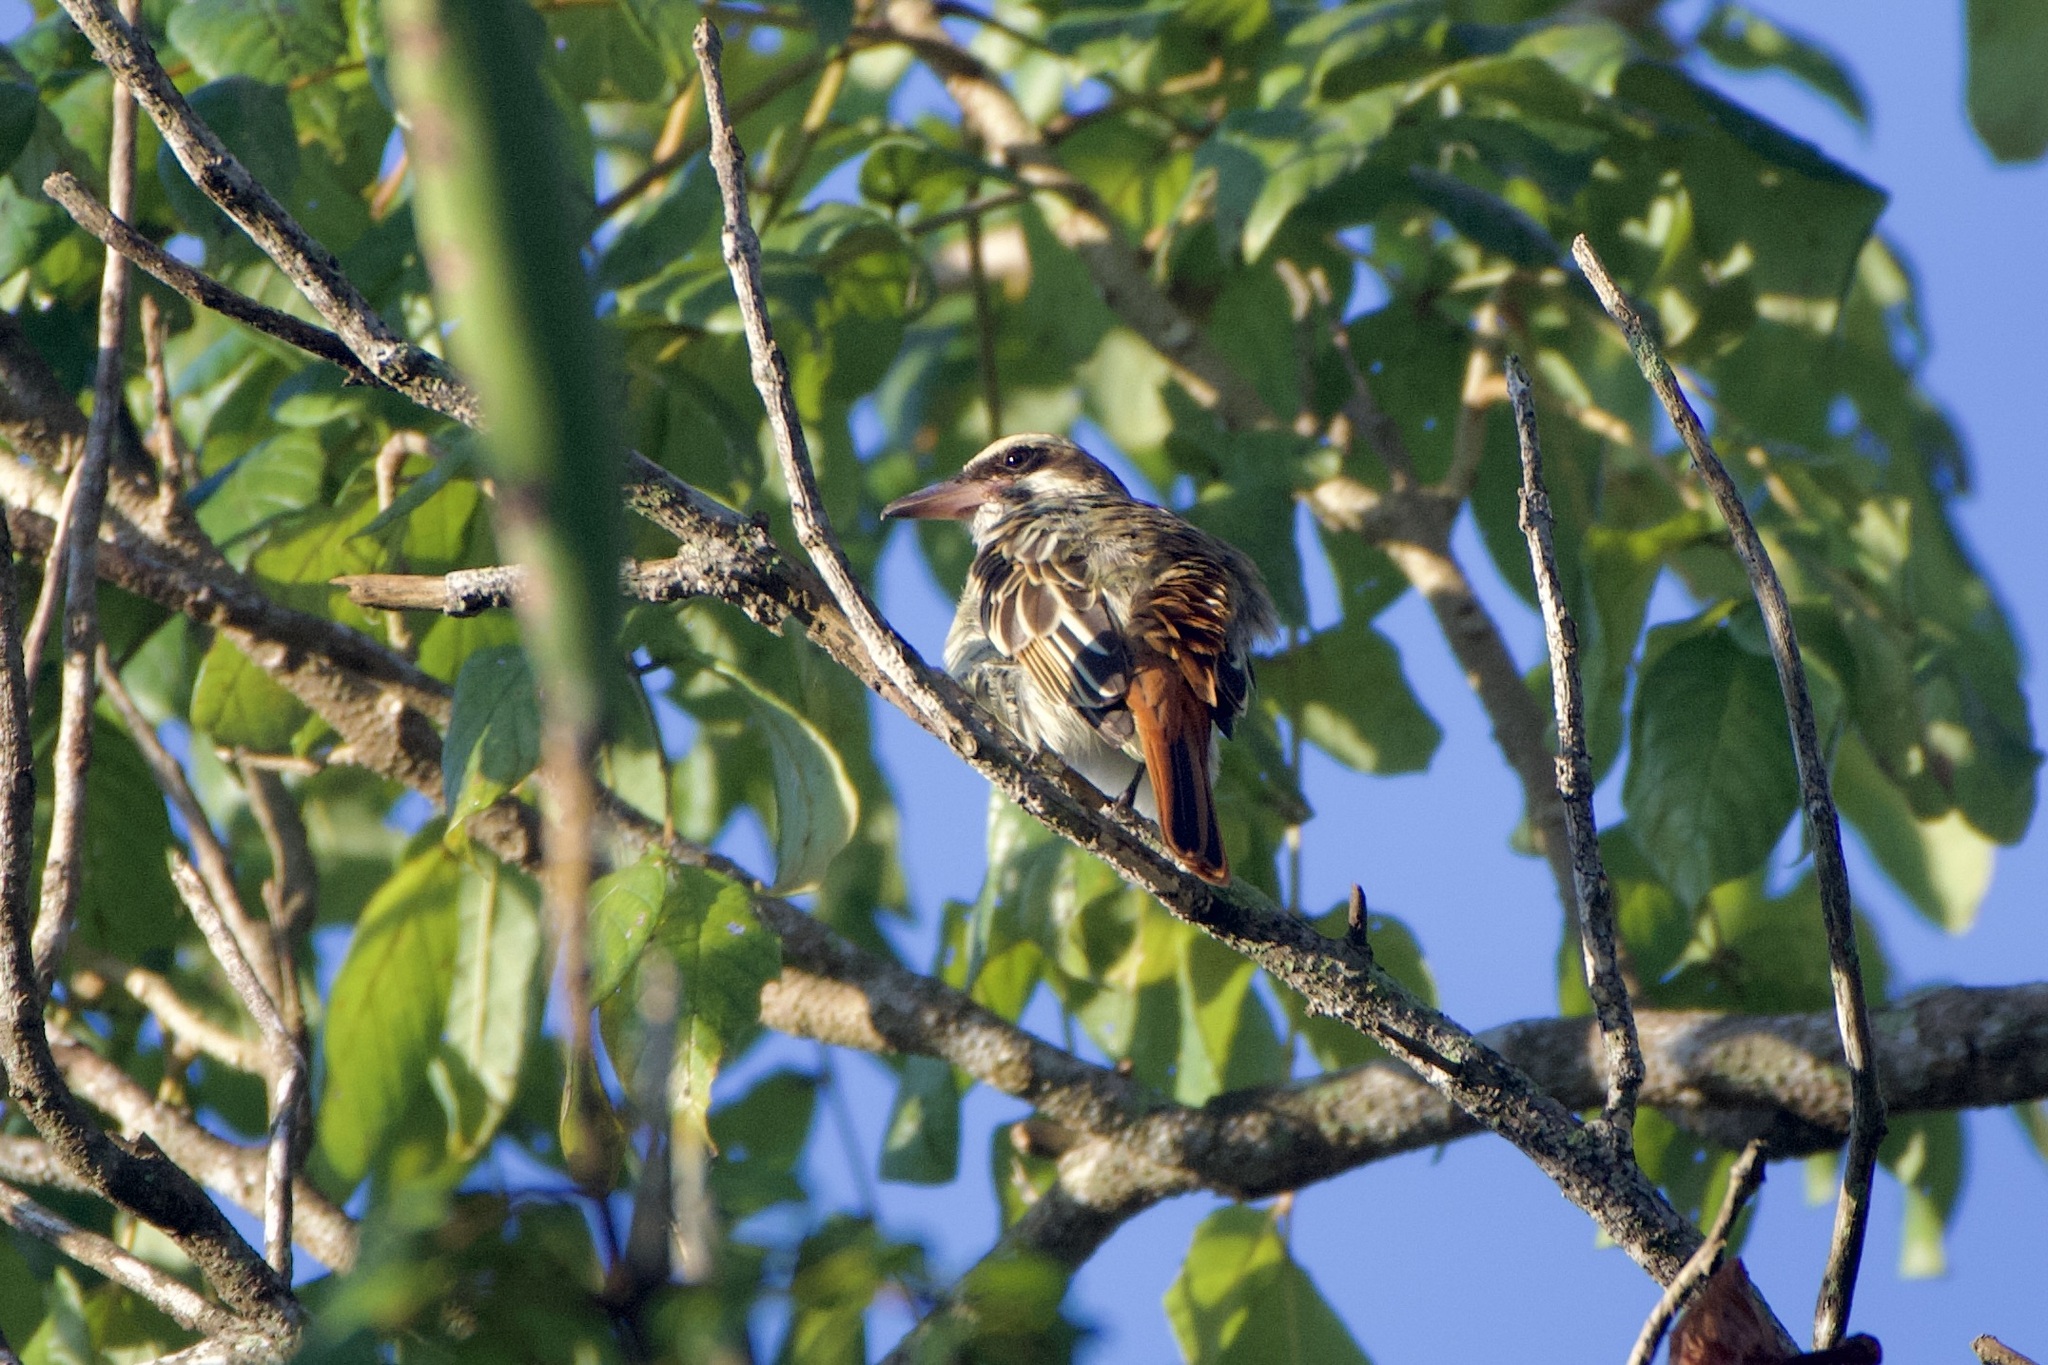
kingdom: Animalia
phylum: Chordata
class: Aves
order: Passeriformes
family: Tyrannidae
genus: Myiodynastes
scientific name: Myiodynastes maculatus
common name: Streaked flycatcher
